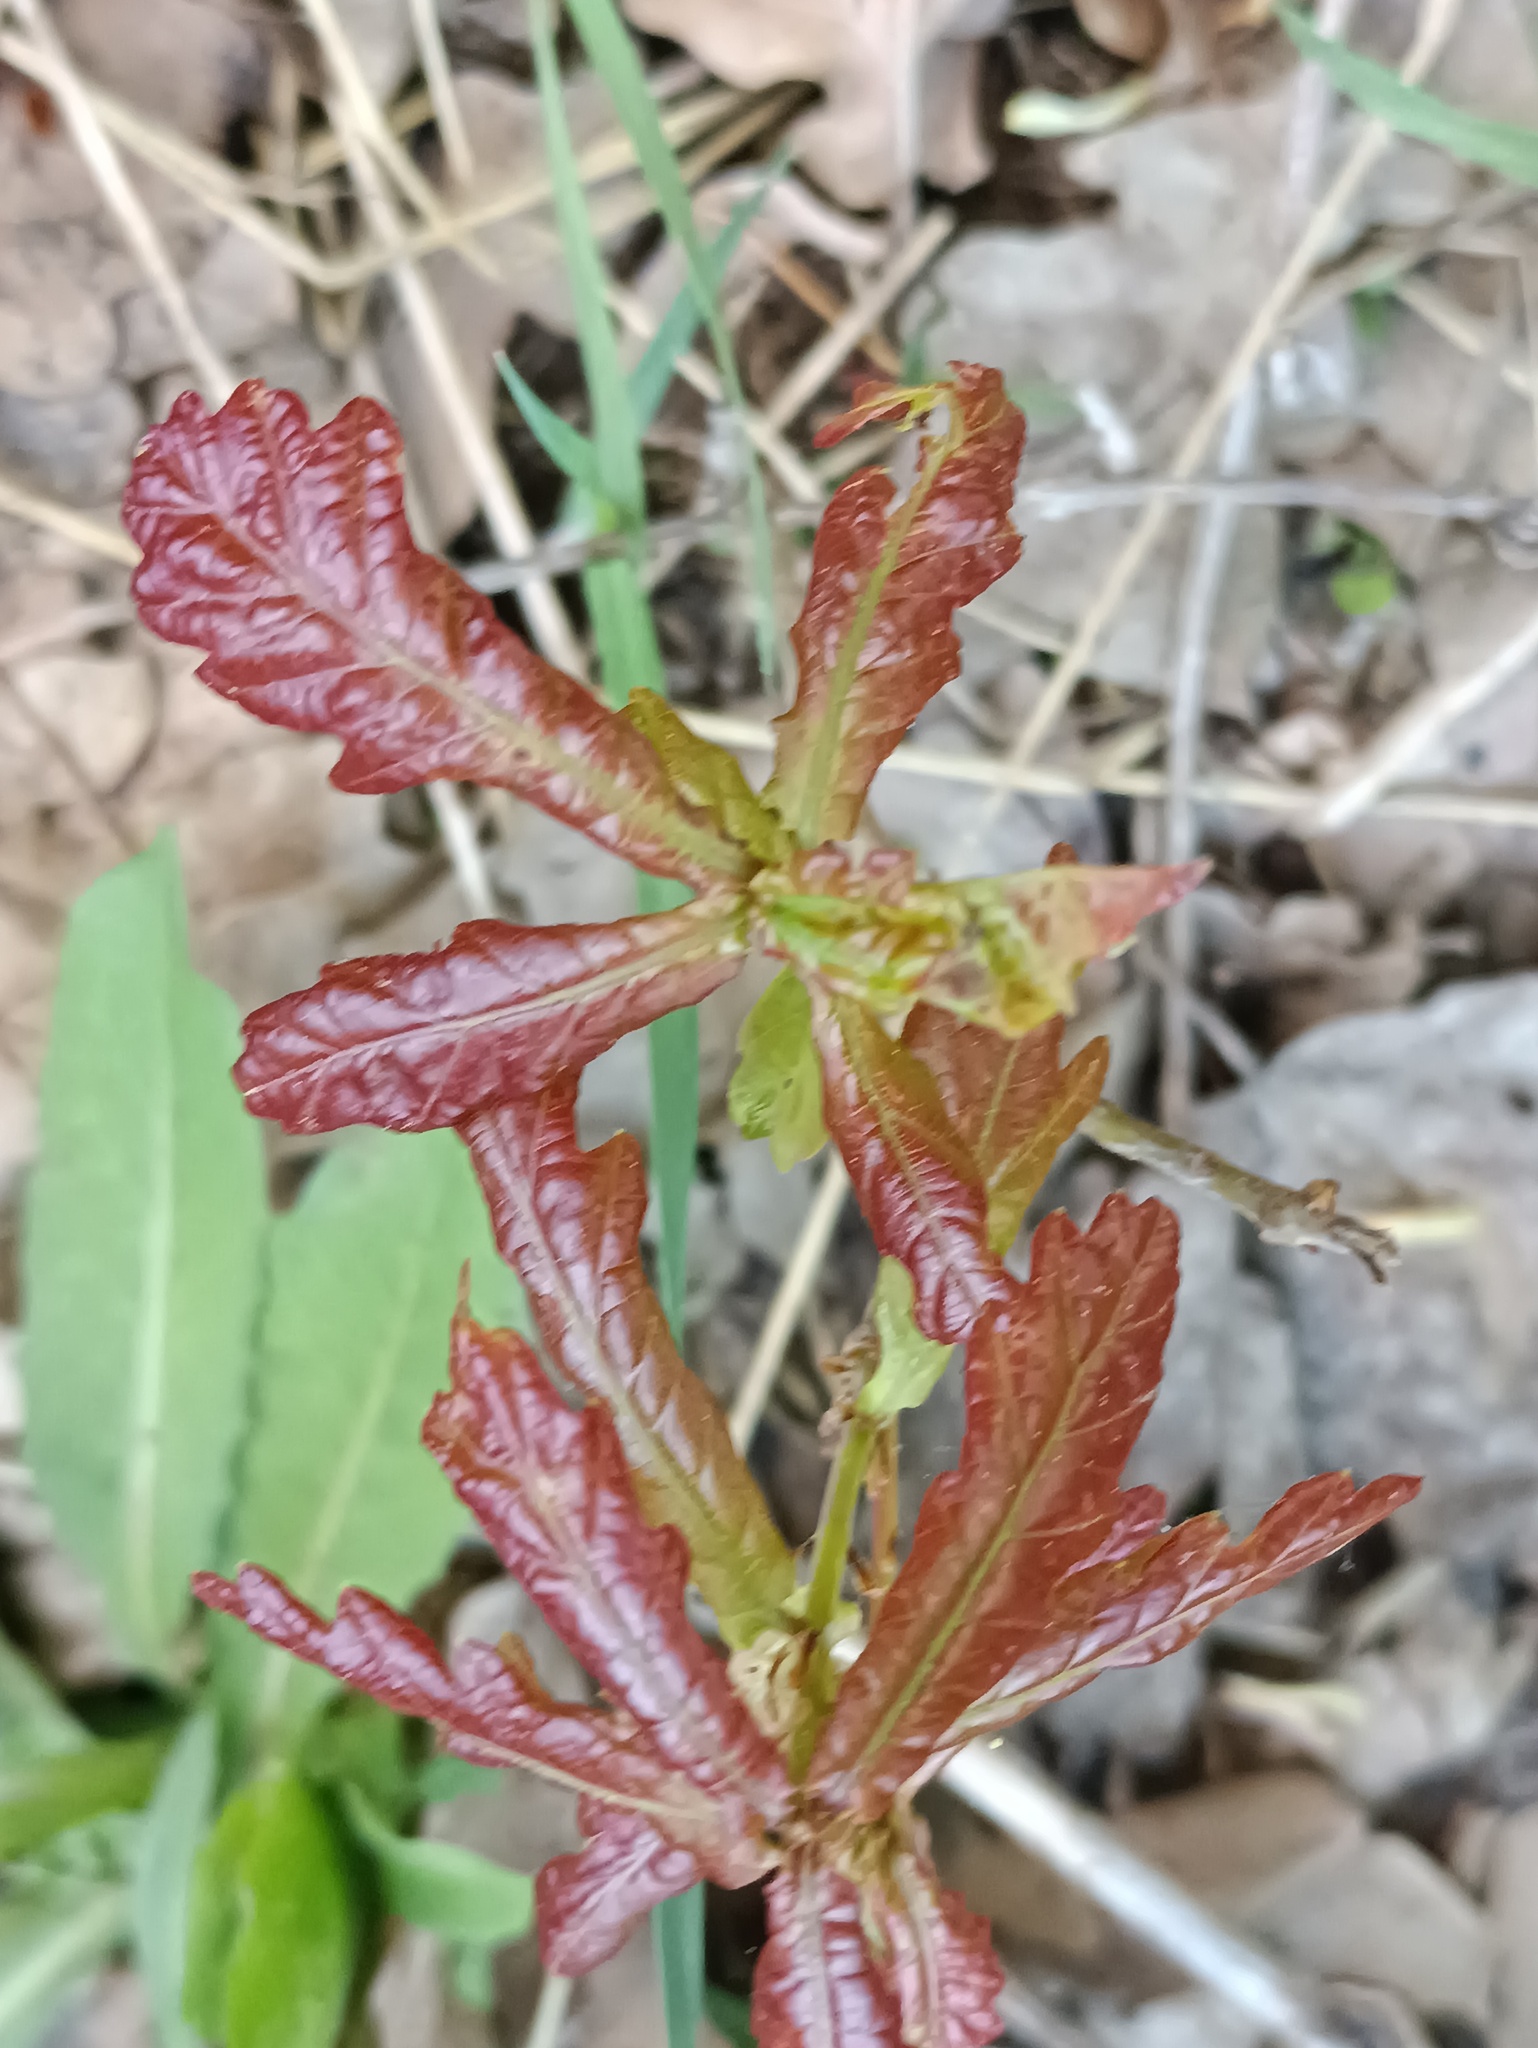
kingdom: Plantae
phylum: Tracheophyta
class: Magnoliopsida
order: Fagales
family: Fagaceae
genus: Quercus
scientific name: Quercus robur
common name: Pedunculate oak
